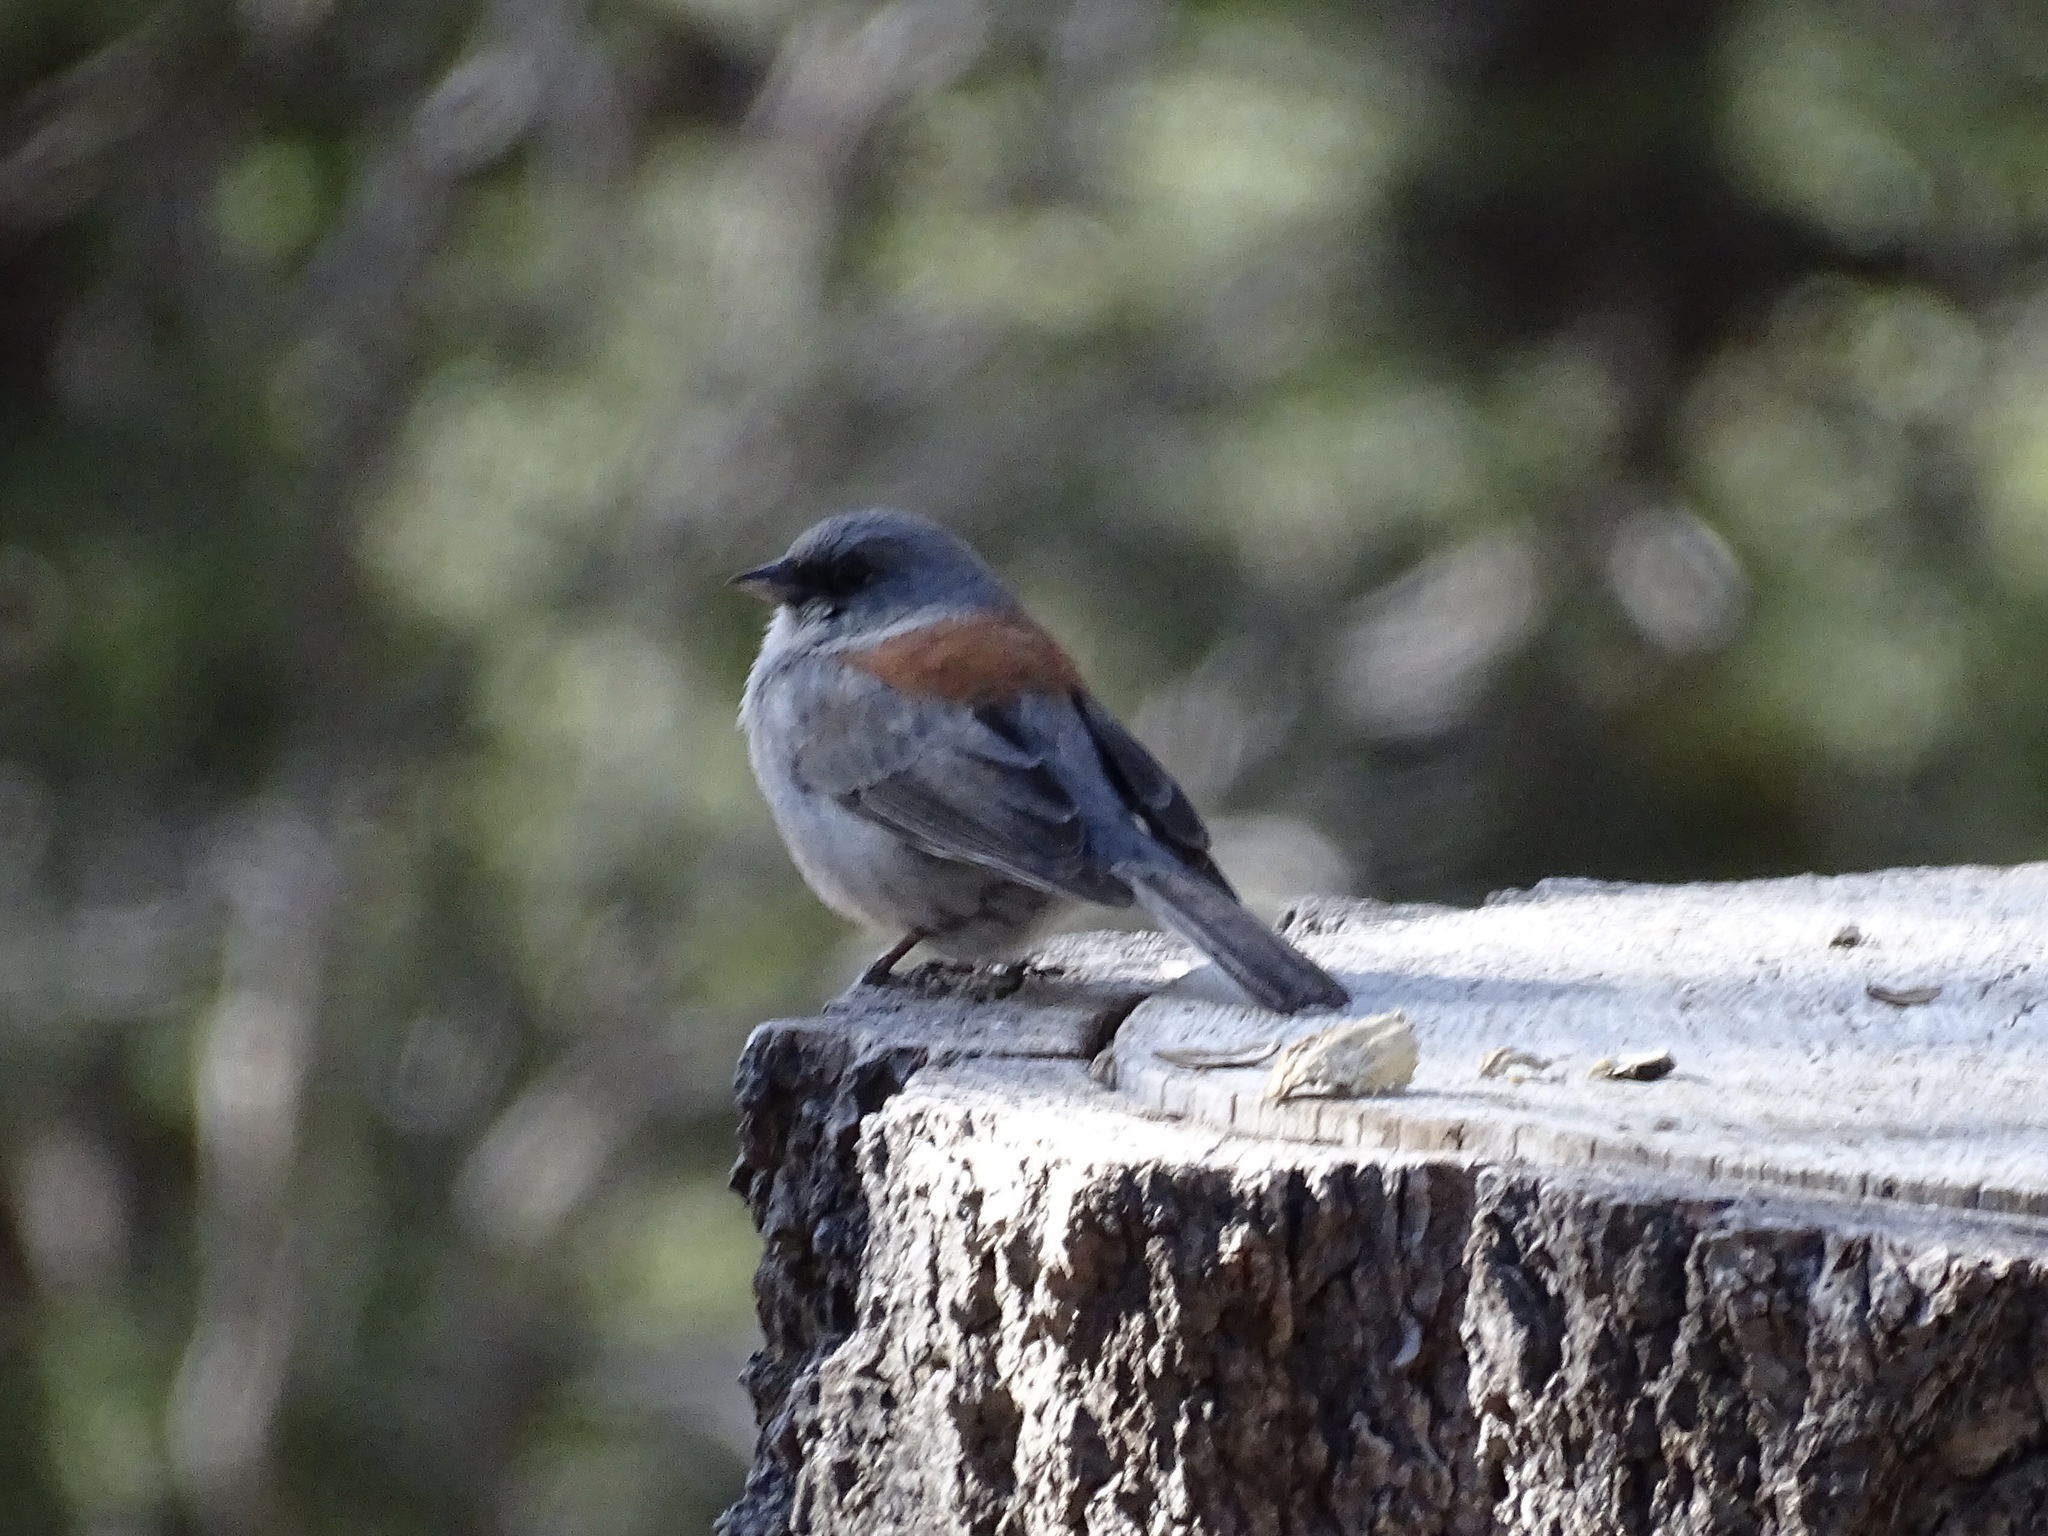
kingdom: Animalia
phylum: Chordata
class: Aves
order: Passeriformes
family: Passerellidae
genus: Junco
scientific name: Junco hyemalis
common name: Dark-eyed junco
